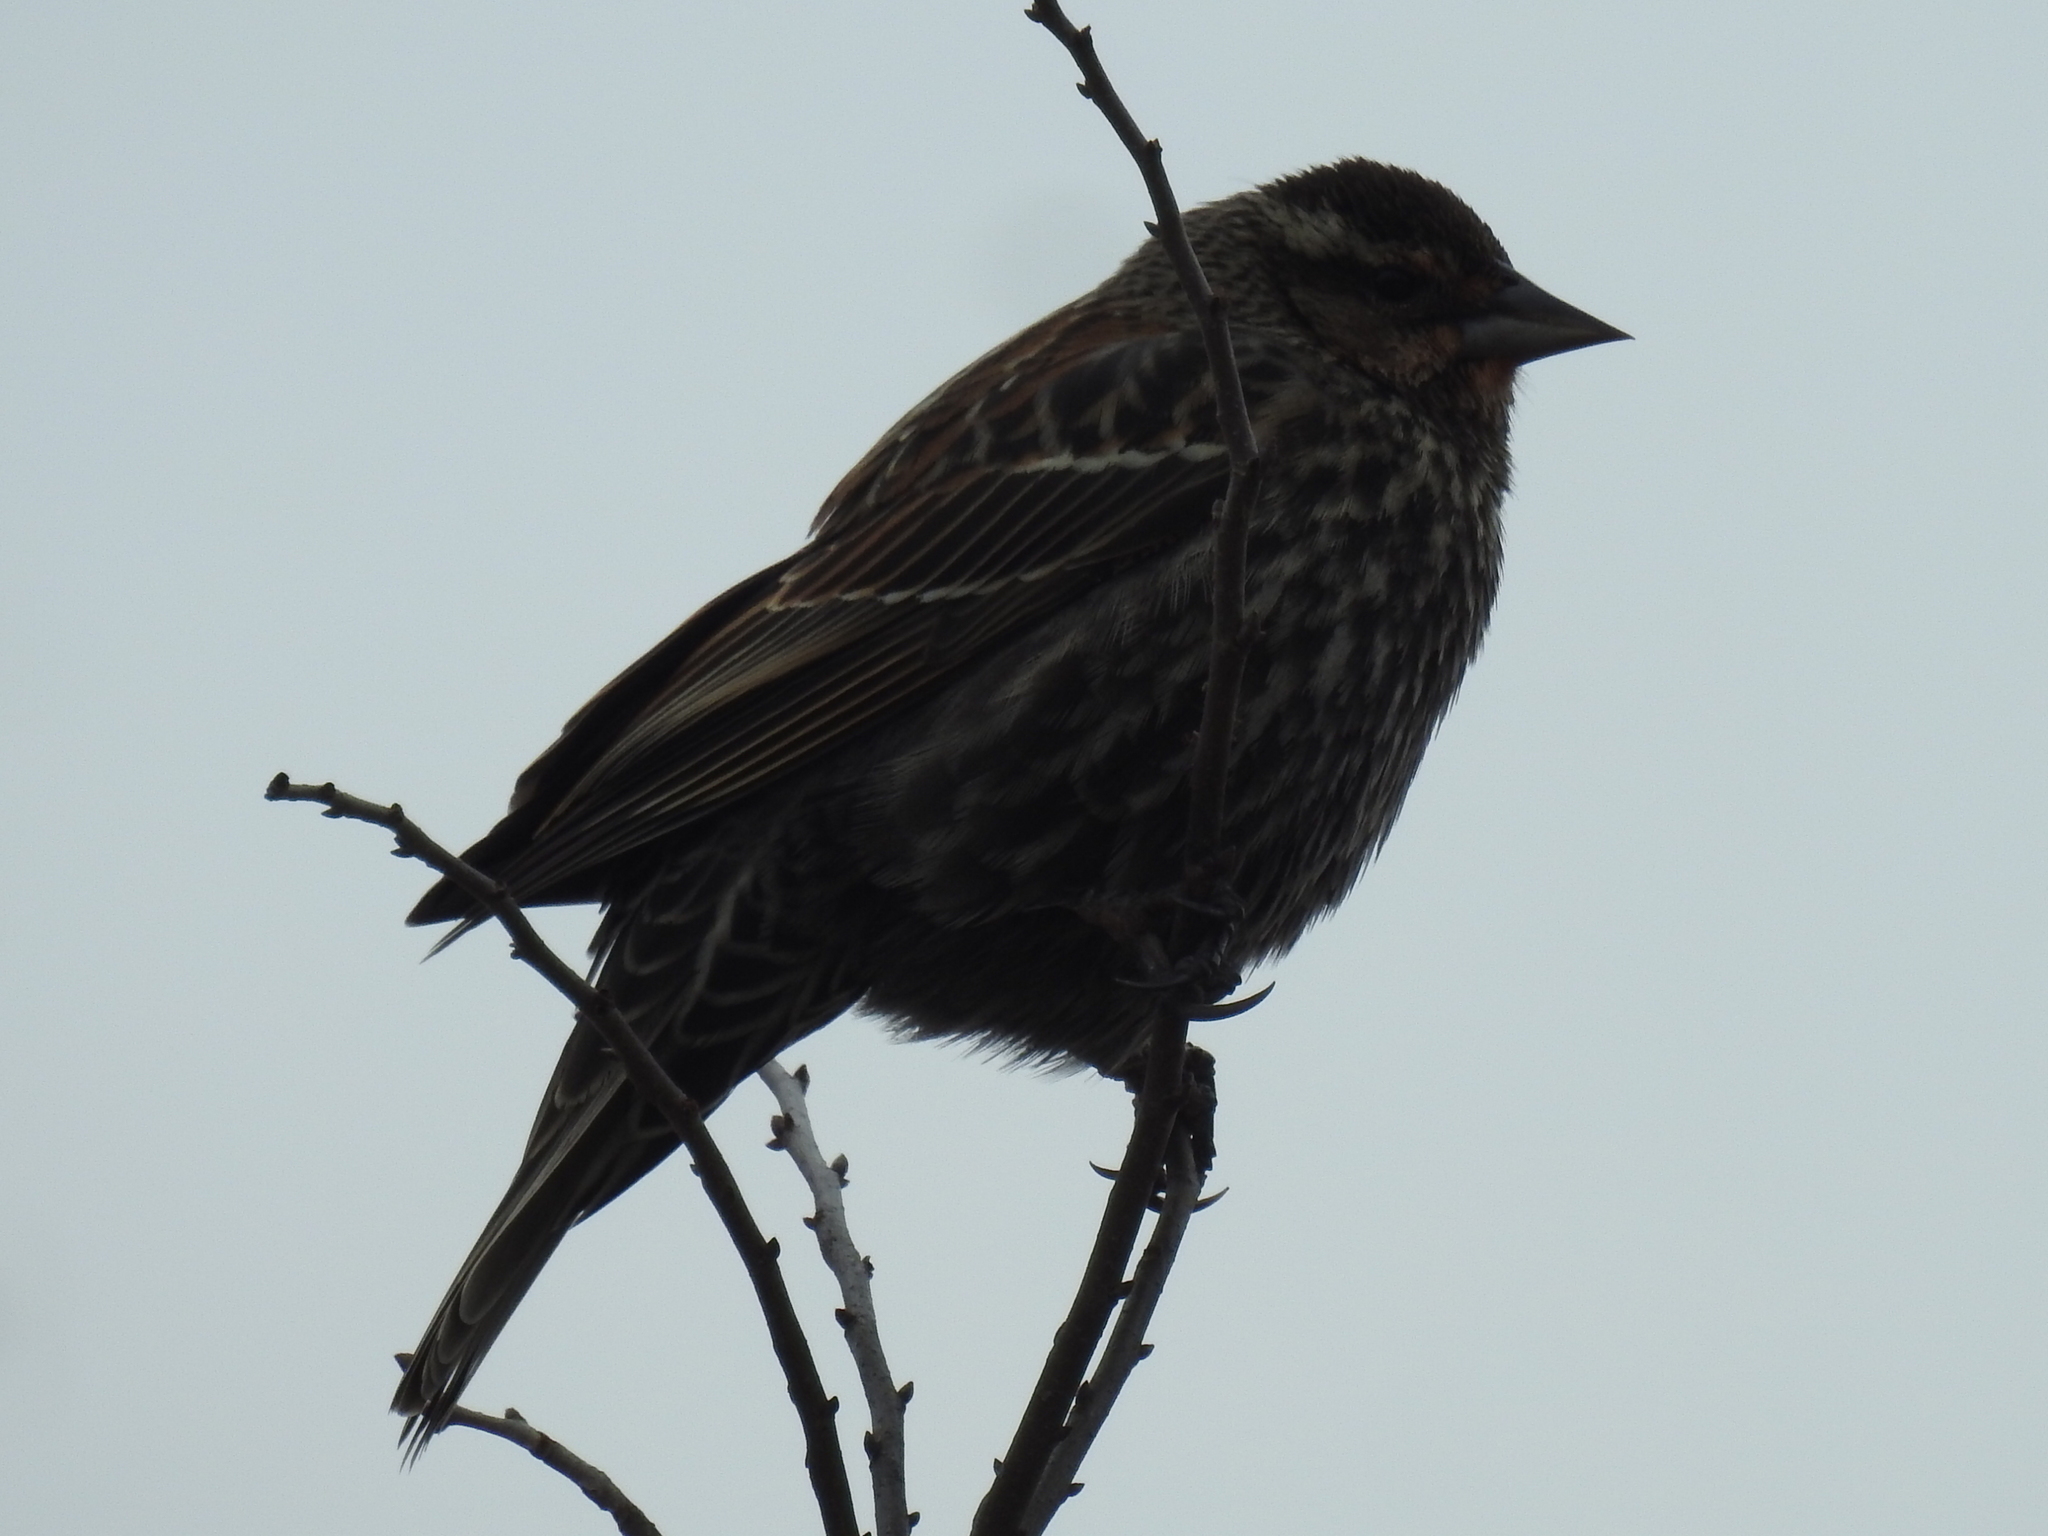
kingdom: Animalia
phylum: Chordata
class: Aves
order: Passeriformes
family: Icteridae
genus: Agelaius
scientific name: Agelaius phoeniceus
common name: Red-winged blackbird
